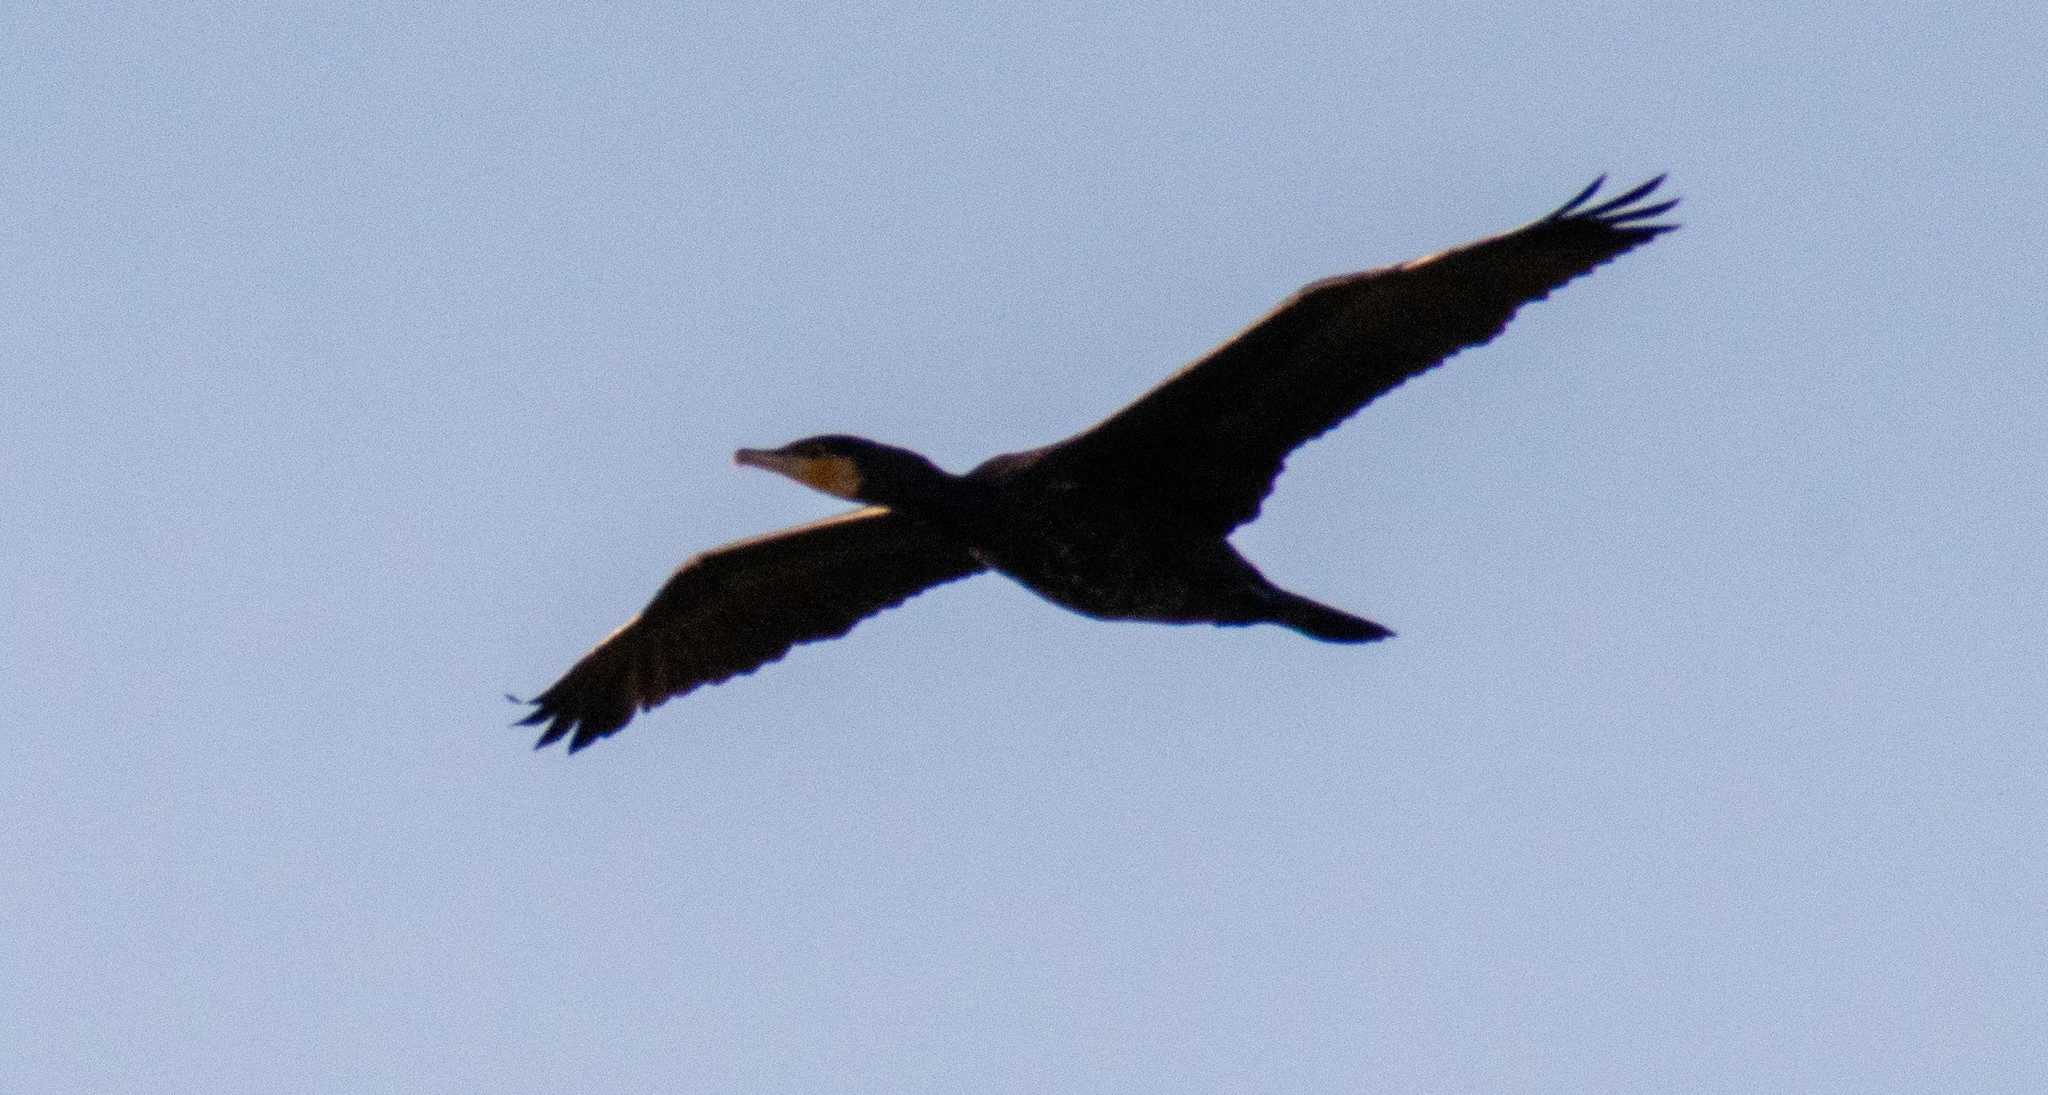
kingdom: Animalia
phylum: Chordata
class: Aves
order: Suliformes
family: Phalacrocoracidae
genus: Phalacrocorax
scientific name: Phalacrocorax carbo
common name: Great cormorant
